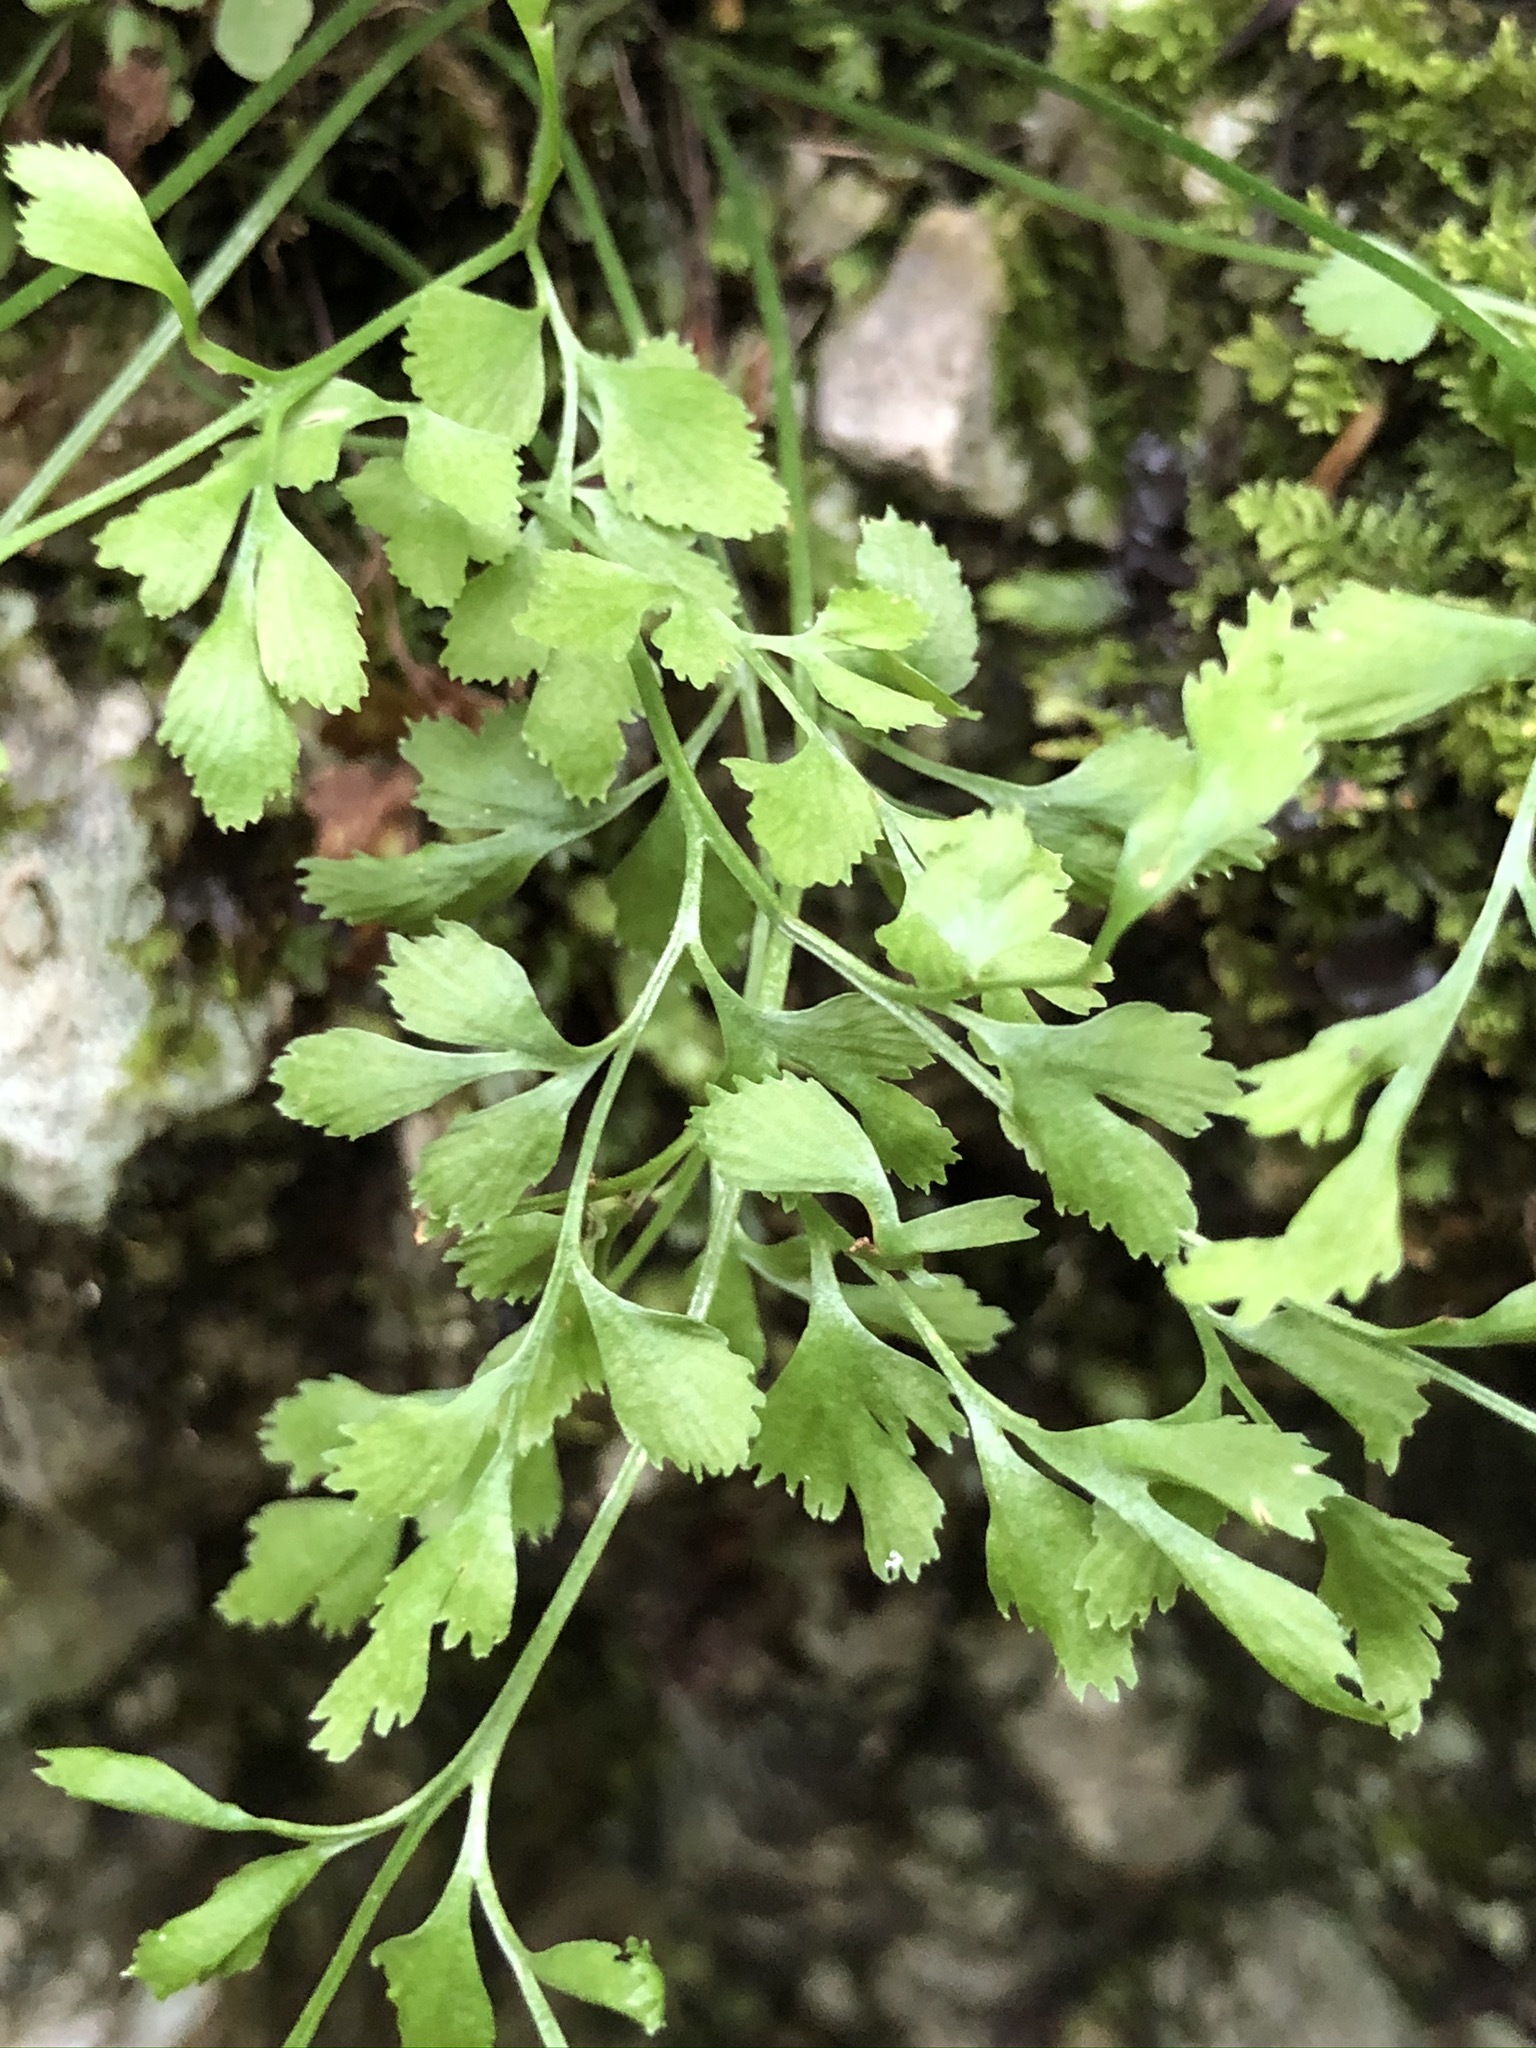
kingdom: Plantae
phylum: Tracheophyta
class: Polypodiopsida
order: Polypodiales
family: Aspleniaceae
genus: Asplenium
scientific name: Asplenium ruta-muraria
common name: Wall-rue
